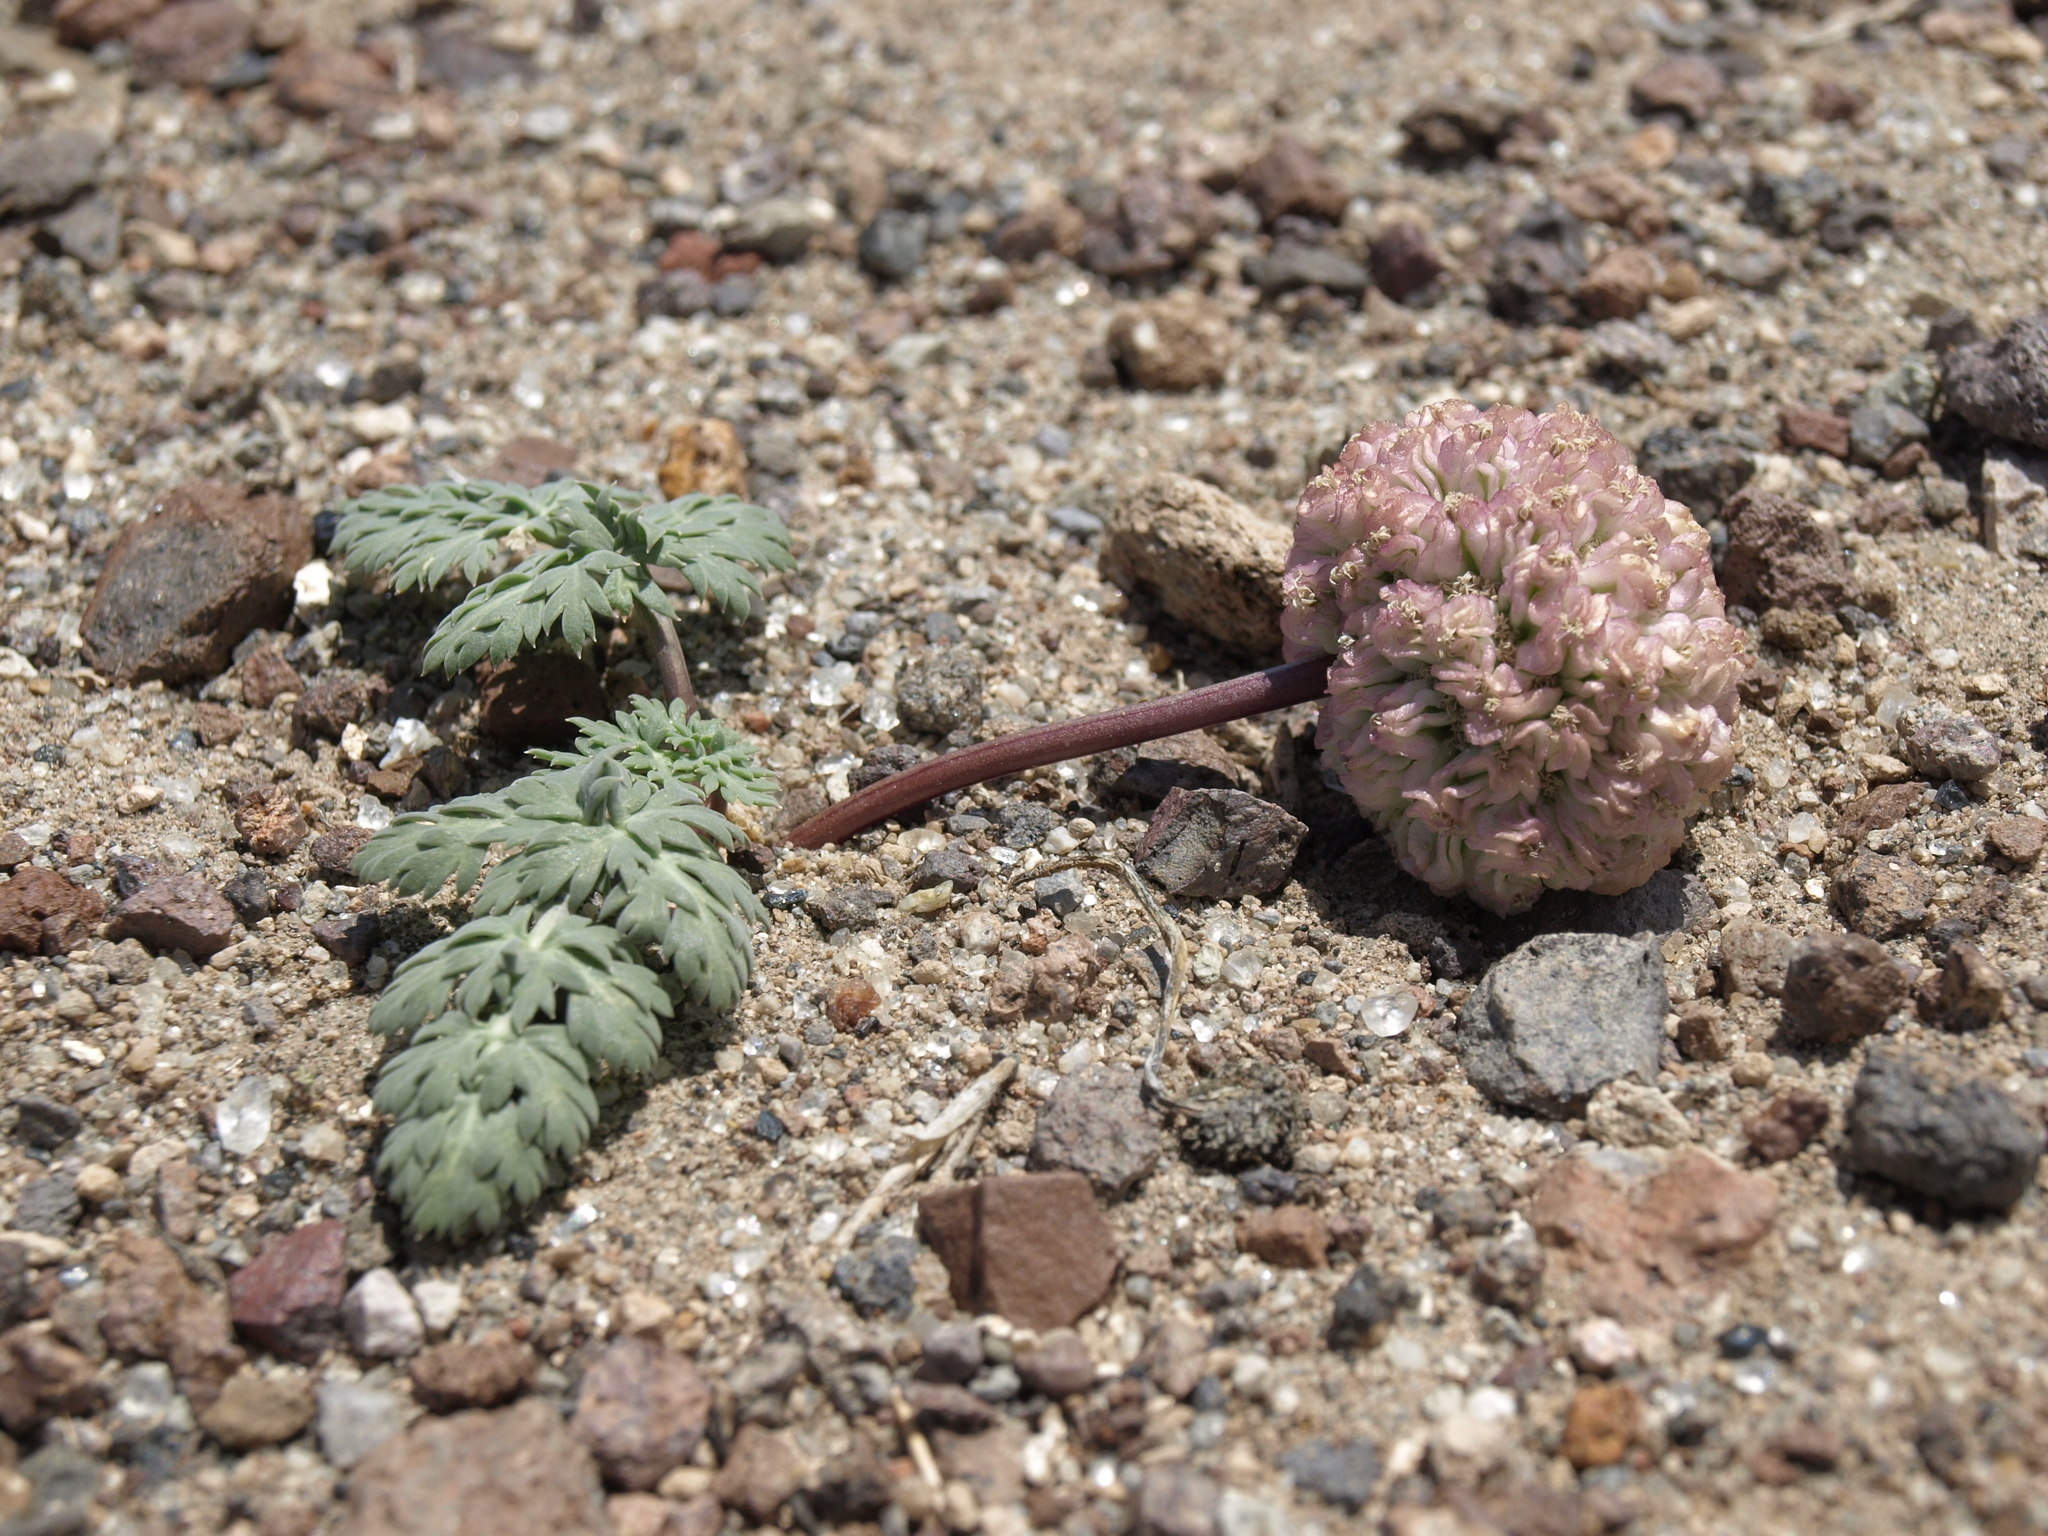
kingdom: Plantae
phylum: Tracheophyta
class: Magnoliopsida
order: Apiales
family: Apiaceae
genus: Cymopterus
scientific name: Cymopterus globosus
